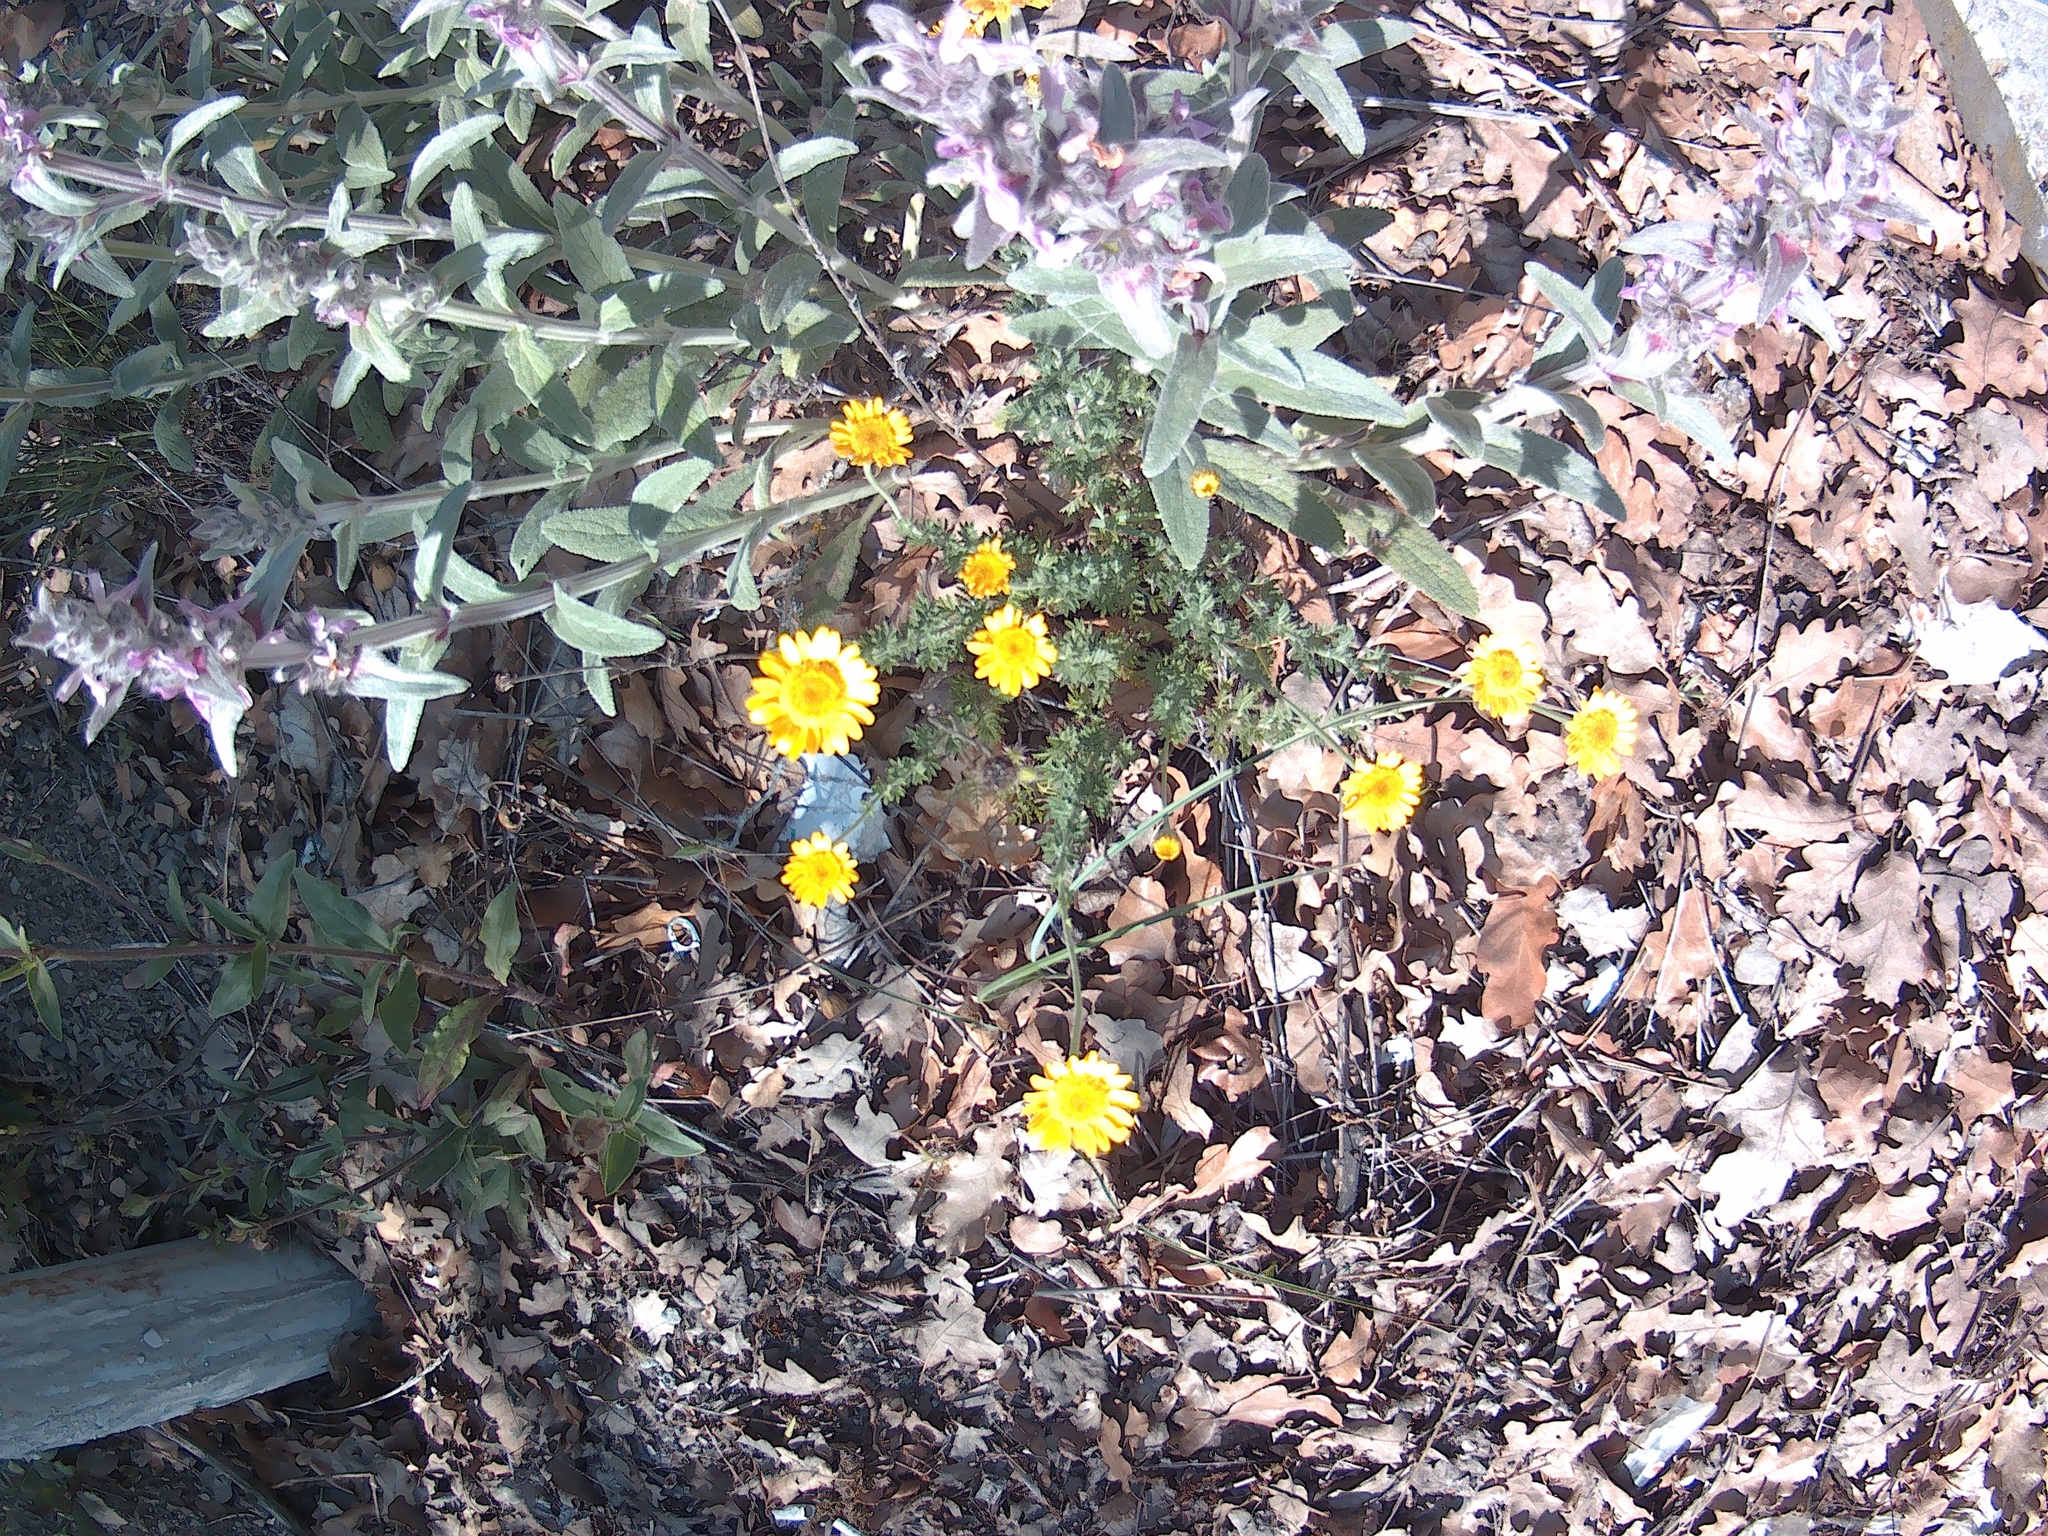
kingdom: Plantae
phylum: Tracheophyta
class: Magnoliopsida
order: Asterales
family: Asteraceae
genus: Cota
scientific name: Cota tinctoria
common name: Golden chamomile
